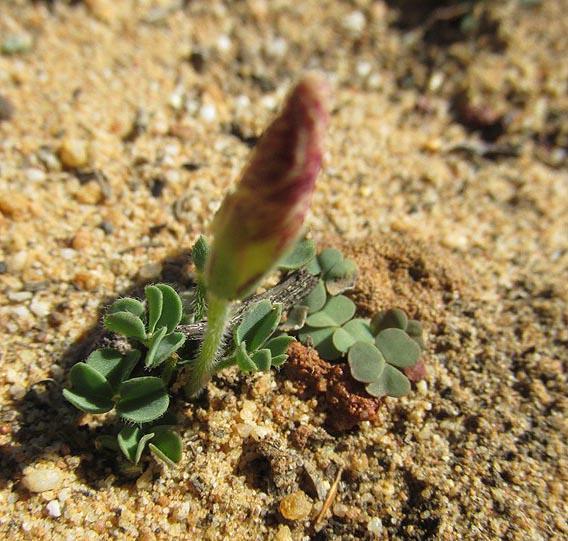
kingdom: Plantae
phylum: Tracheophyta
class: Magnoliopsida
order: Oxalidales
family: Oxalidaceae
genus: Oxalis
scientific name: Oxalis obtusa
